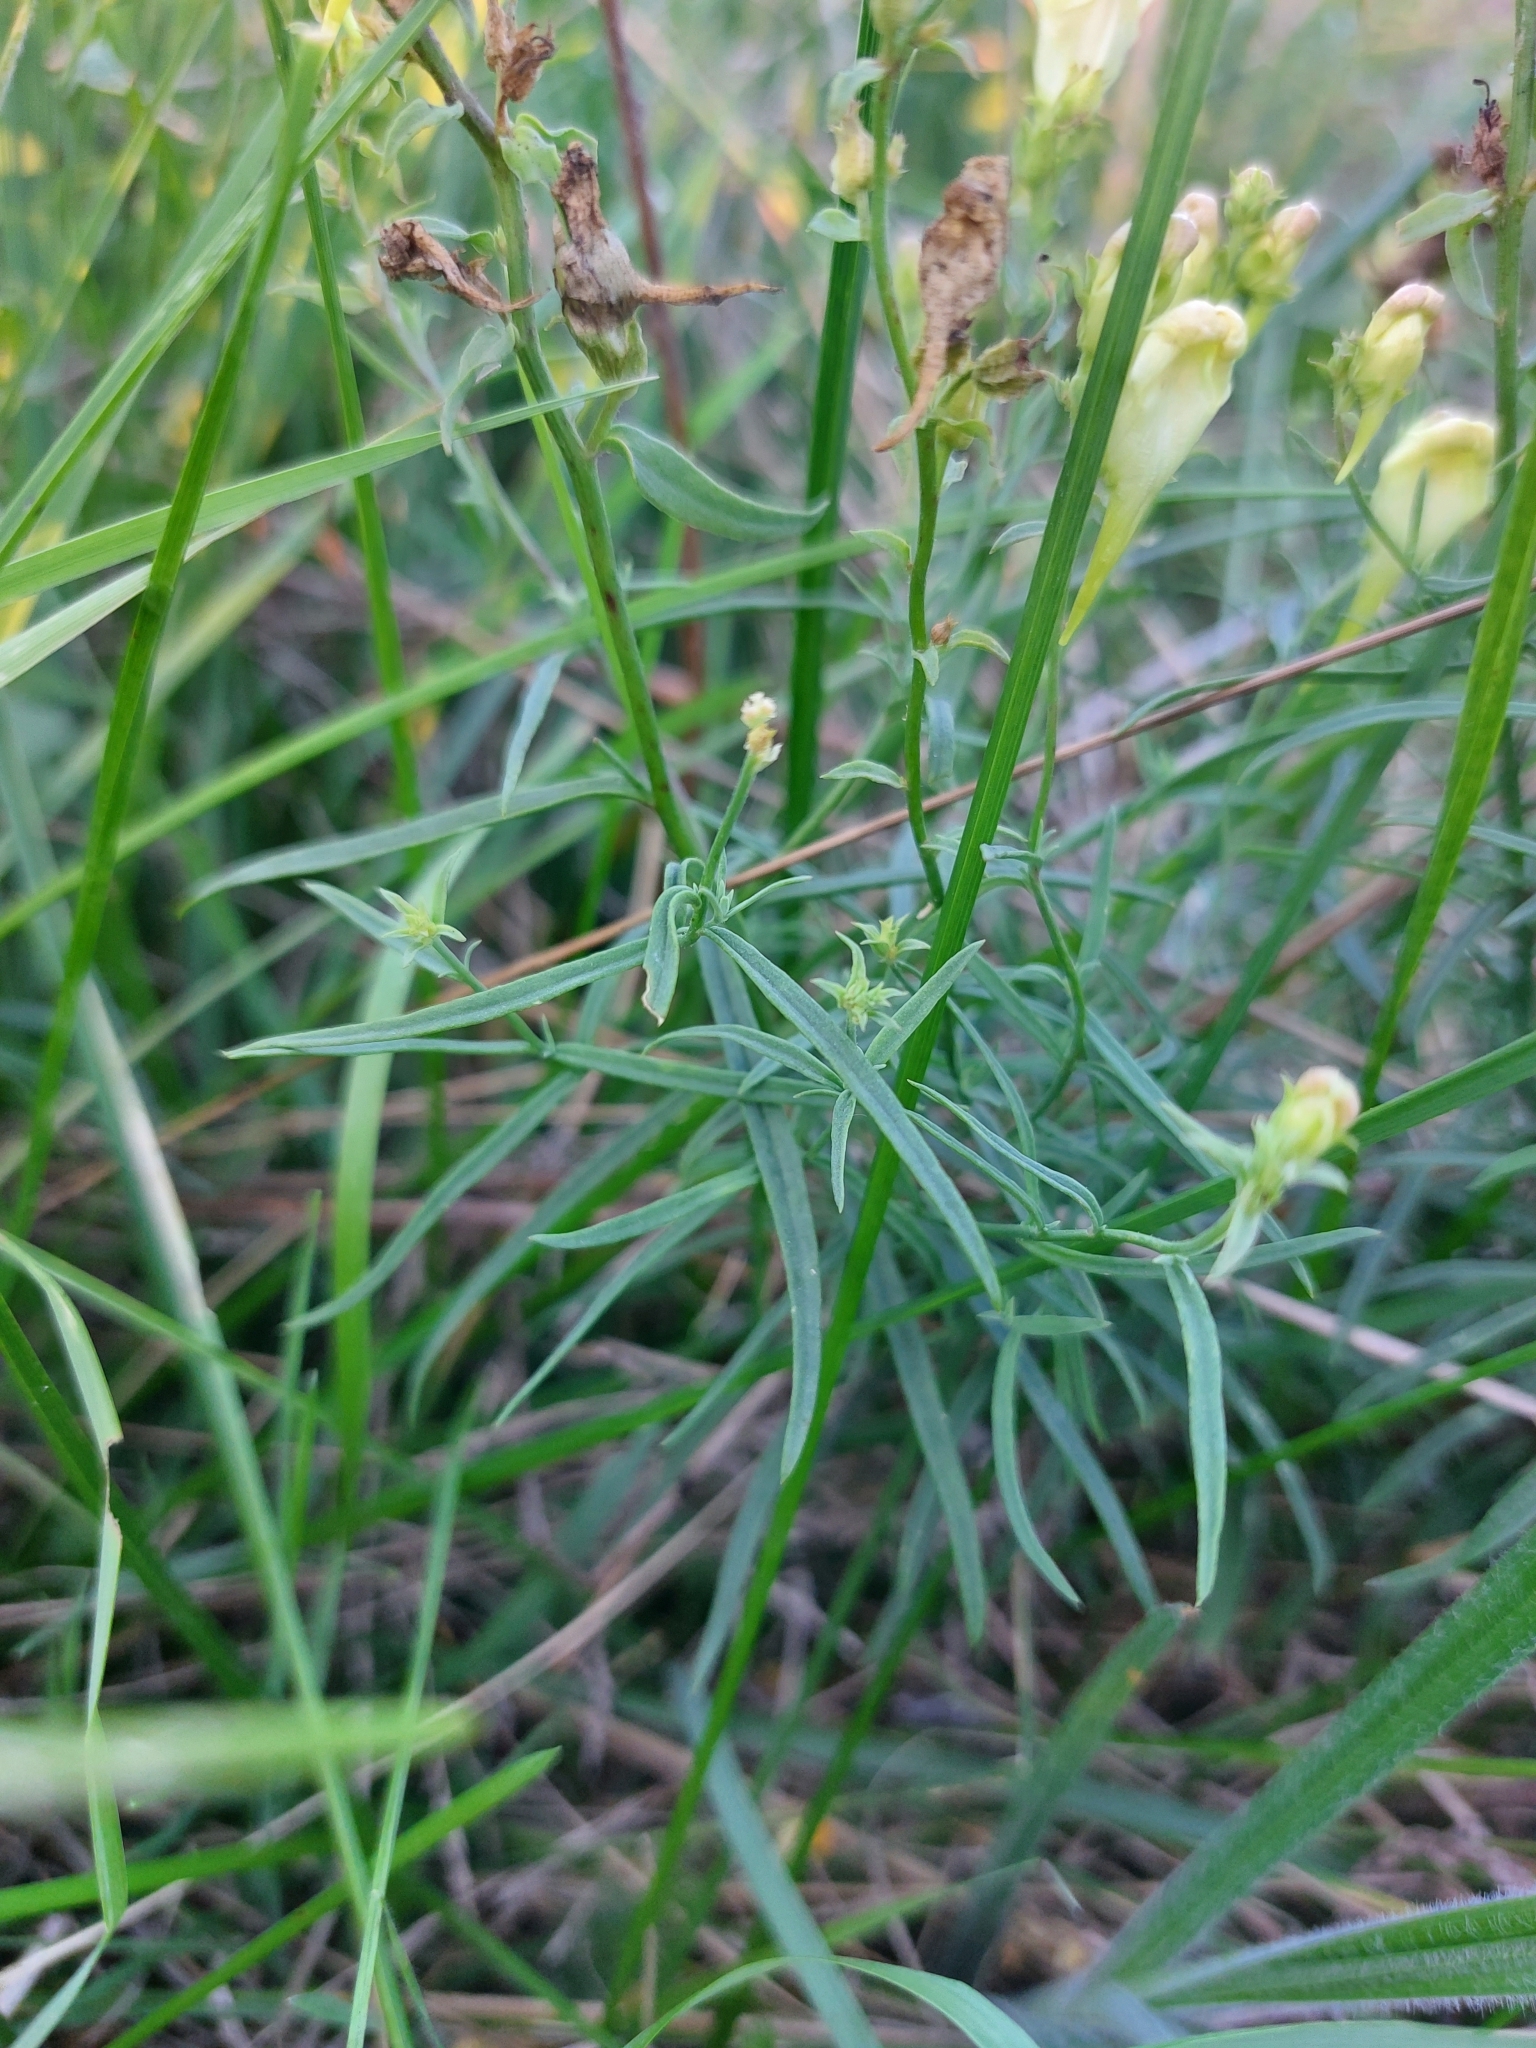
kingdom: Plantae
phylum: Tracheophyta
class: Magnoliopsida
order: Lamiales
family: Plantaginaceae
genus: Linaria
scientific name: Linaria vulgaris
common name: Butter and eggs
